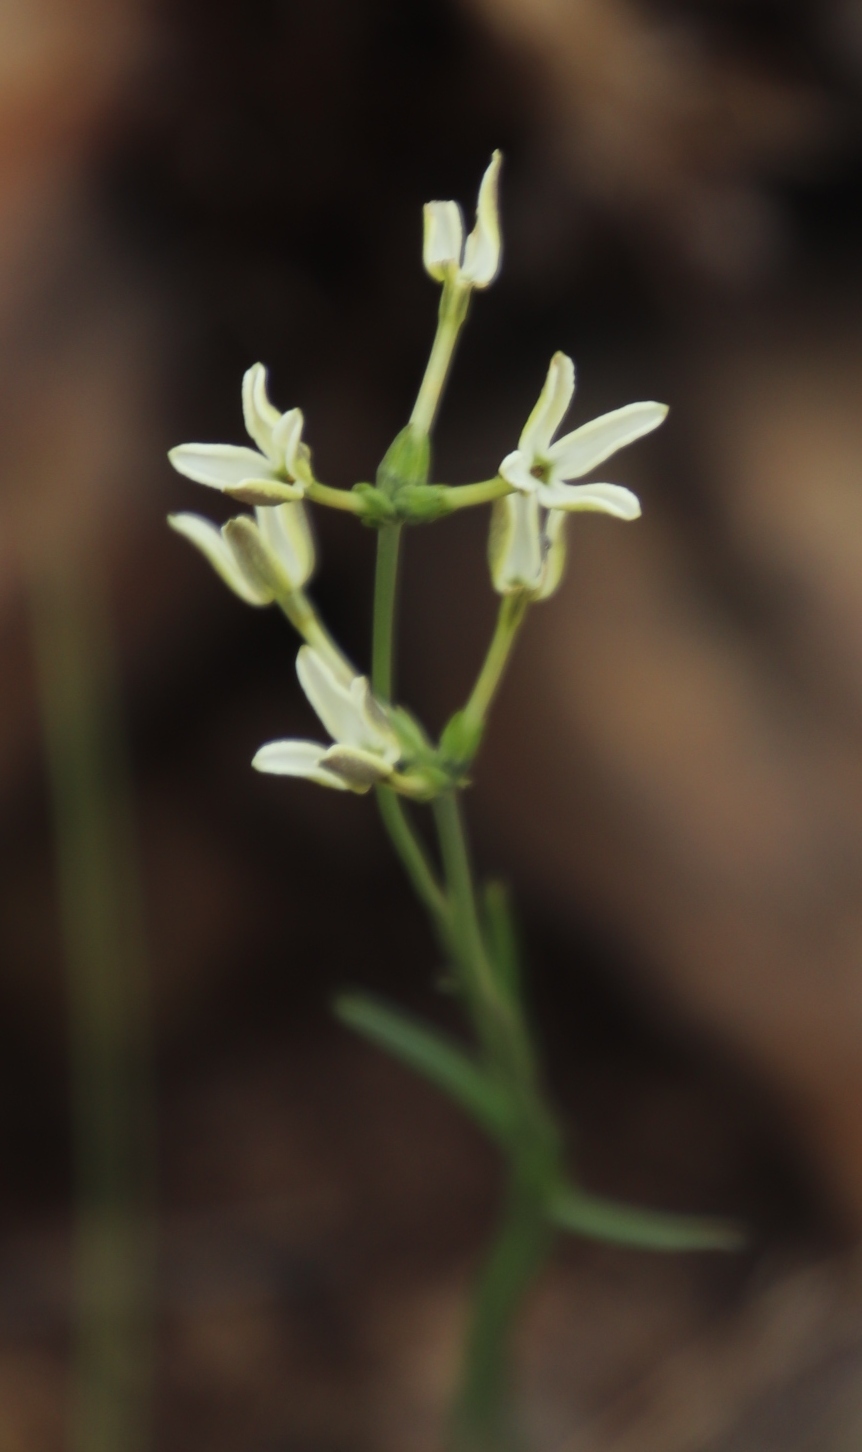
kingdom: Plantae
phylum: Tracheophyta
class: Magnoliopsida
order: Gentianales
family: Rubiaceae
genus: Kohautia
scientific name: Kohautia amatymbica
